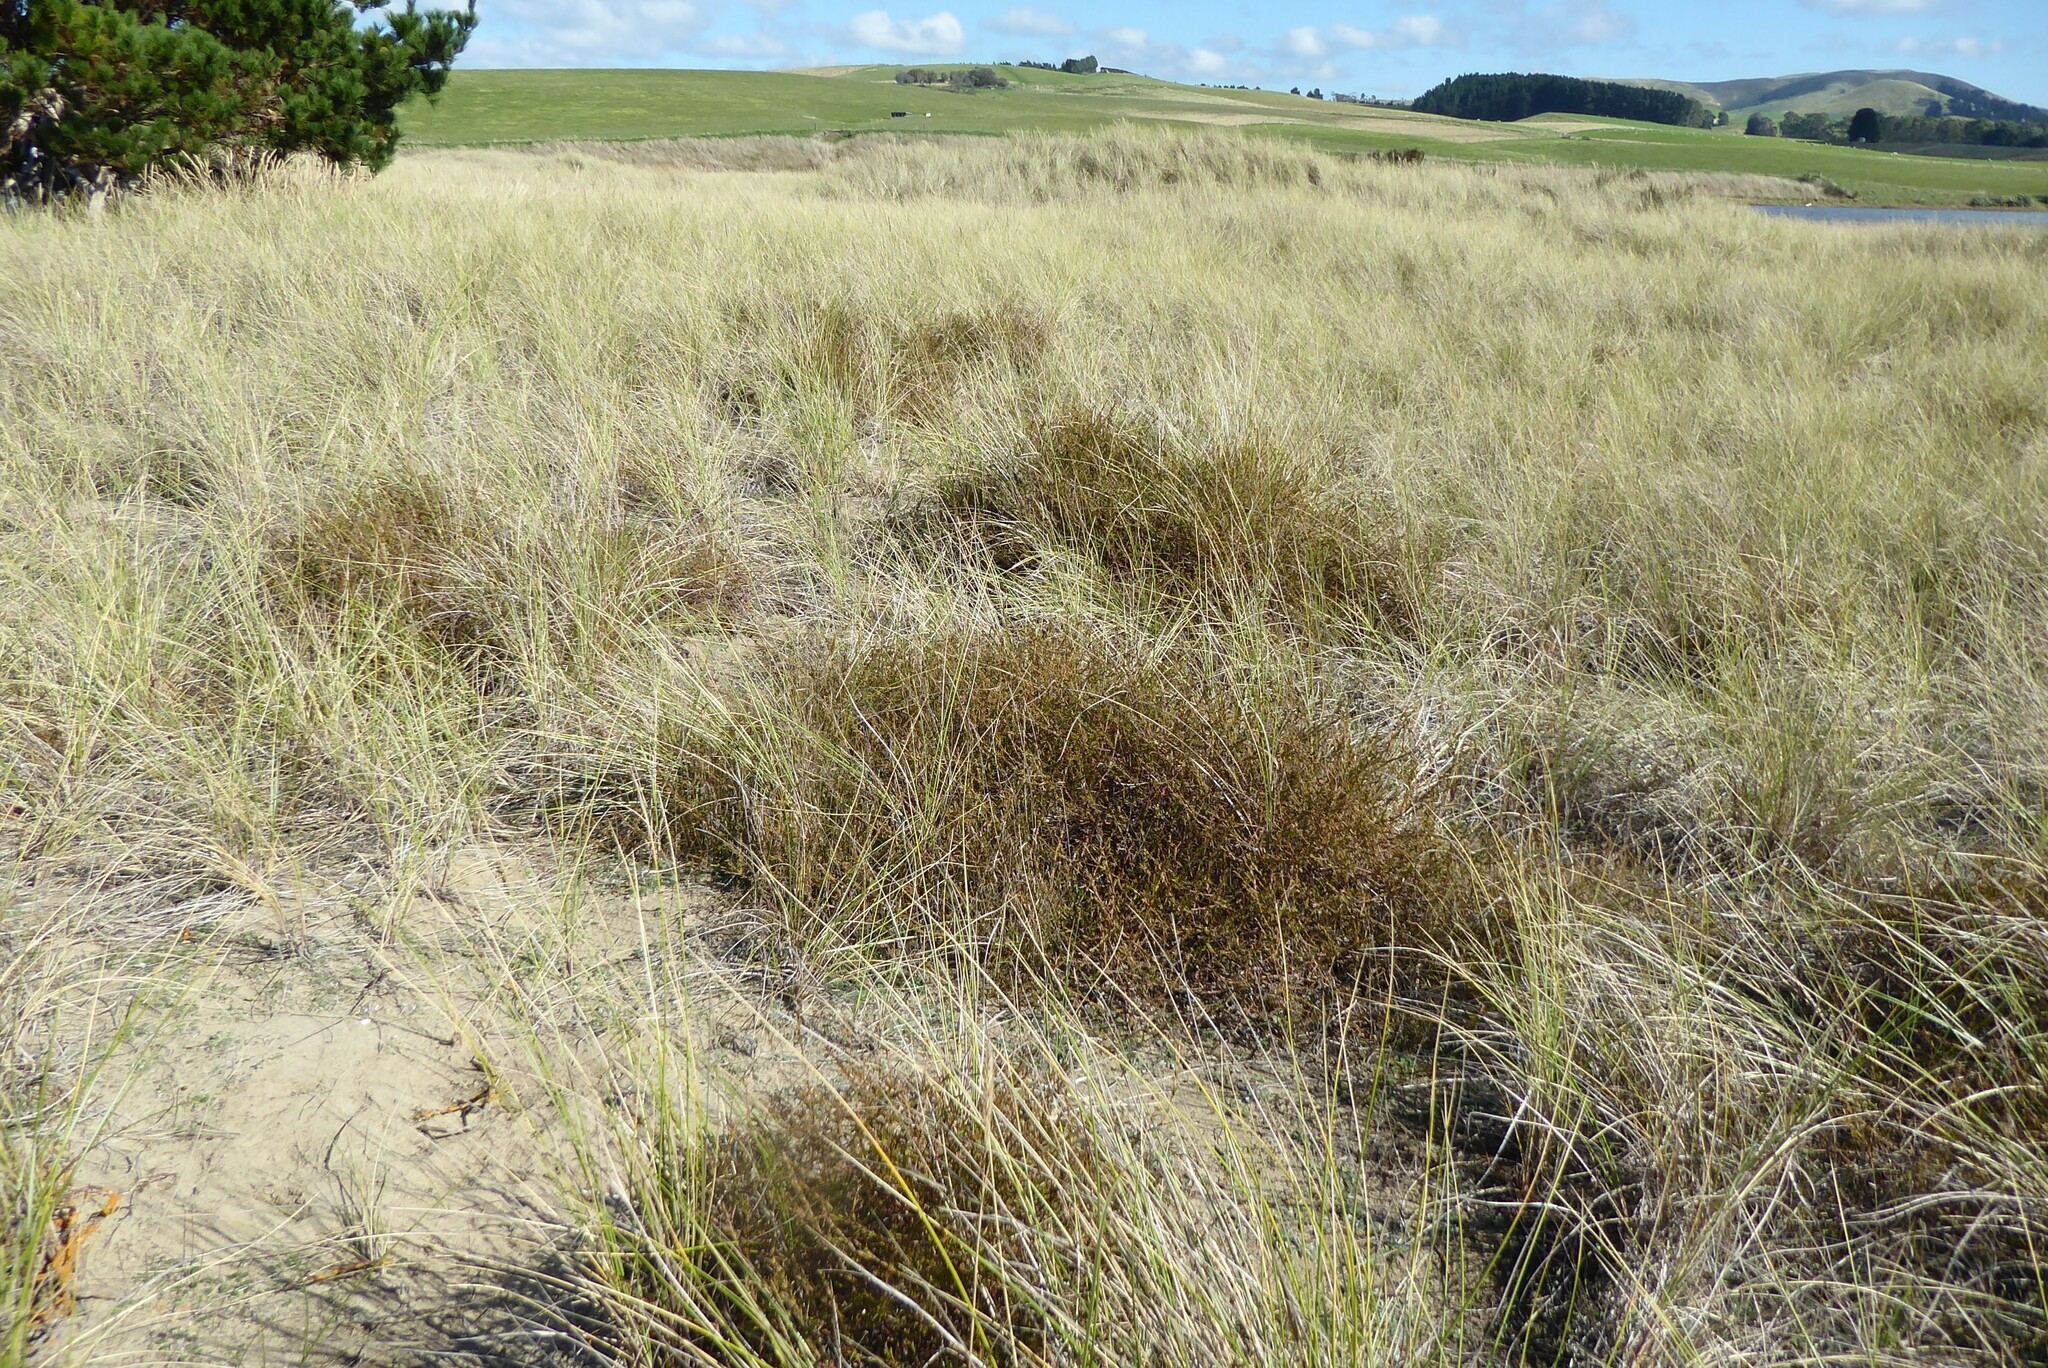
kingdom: Plantae
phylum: Tracheophyta
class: Magnoliopsida
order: Gentianales
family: Rubiaceae
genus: Coprosma
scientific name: Coprosma acerosa
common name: Sand coprosma
